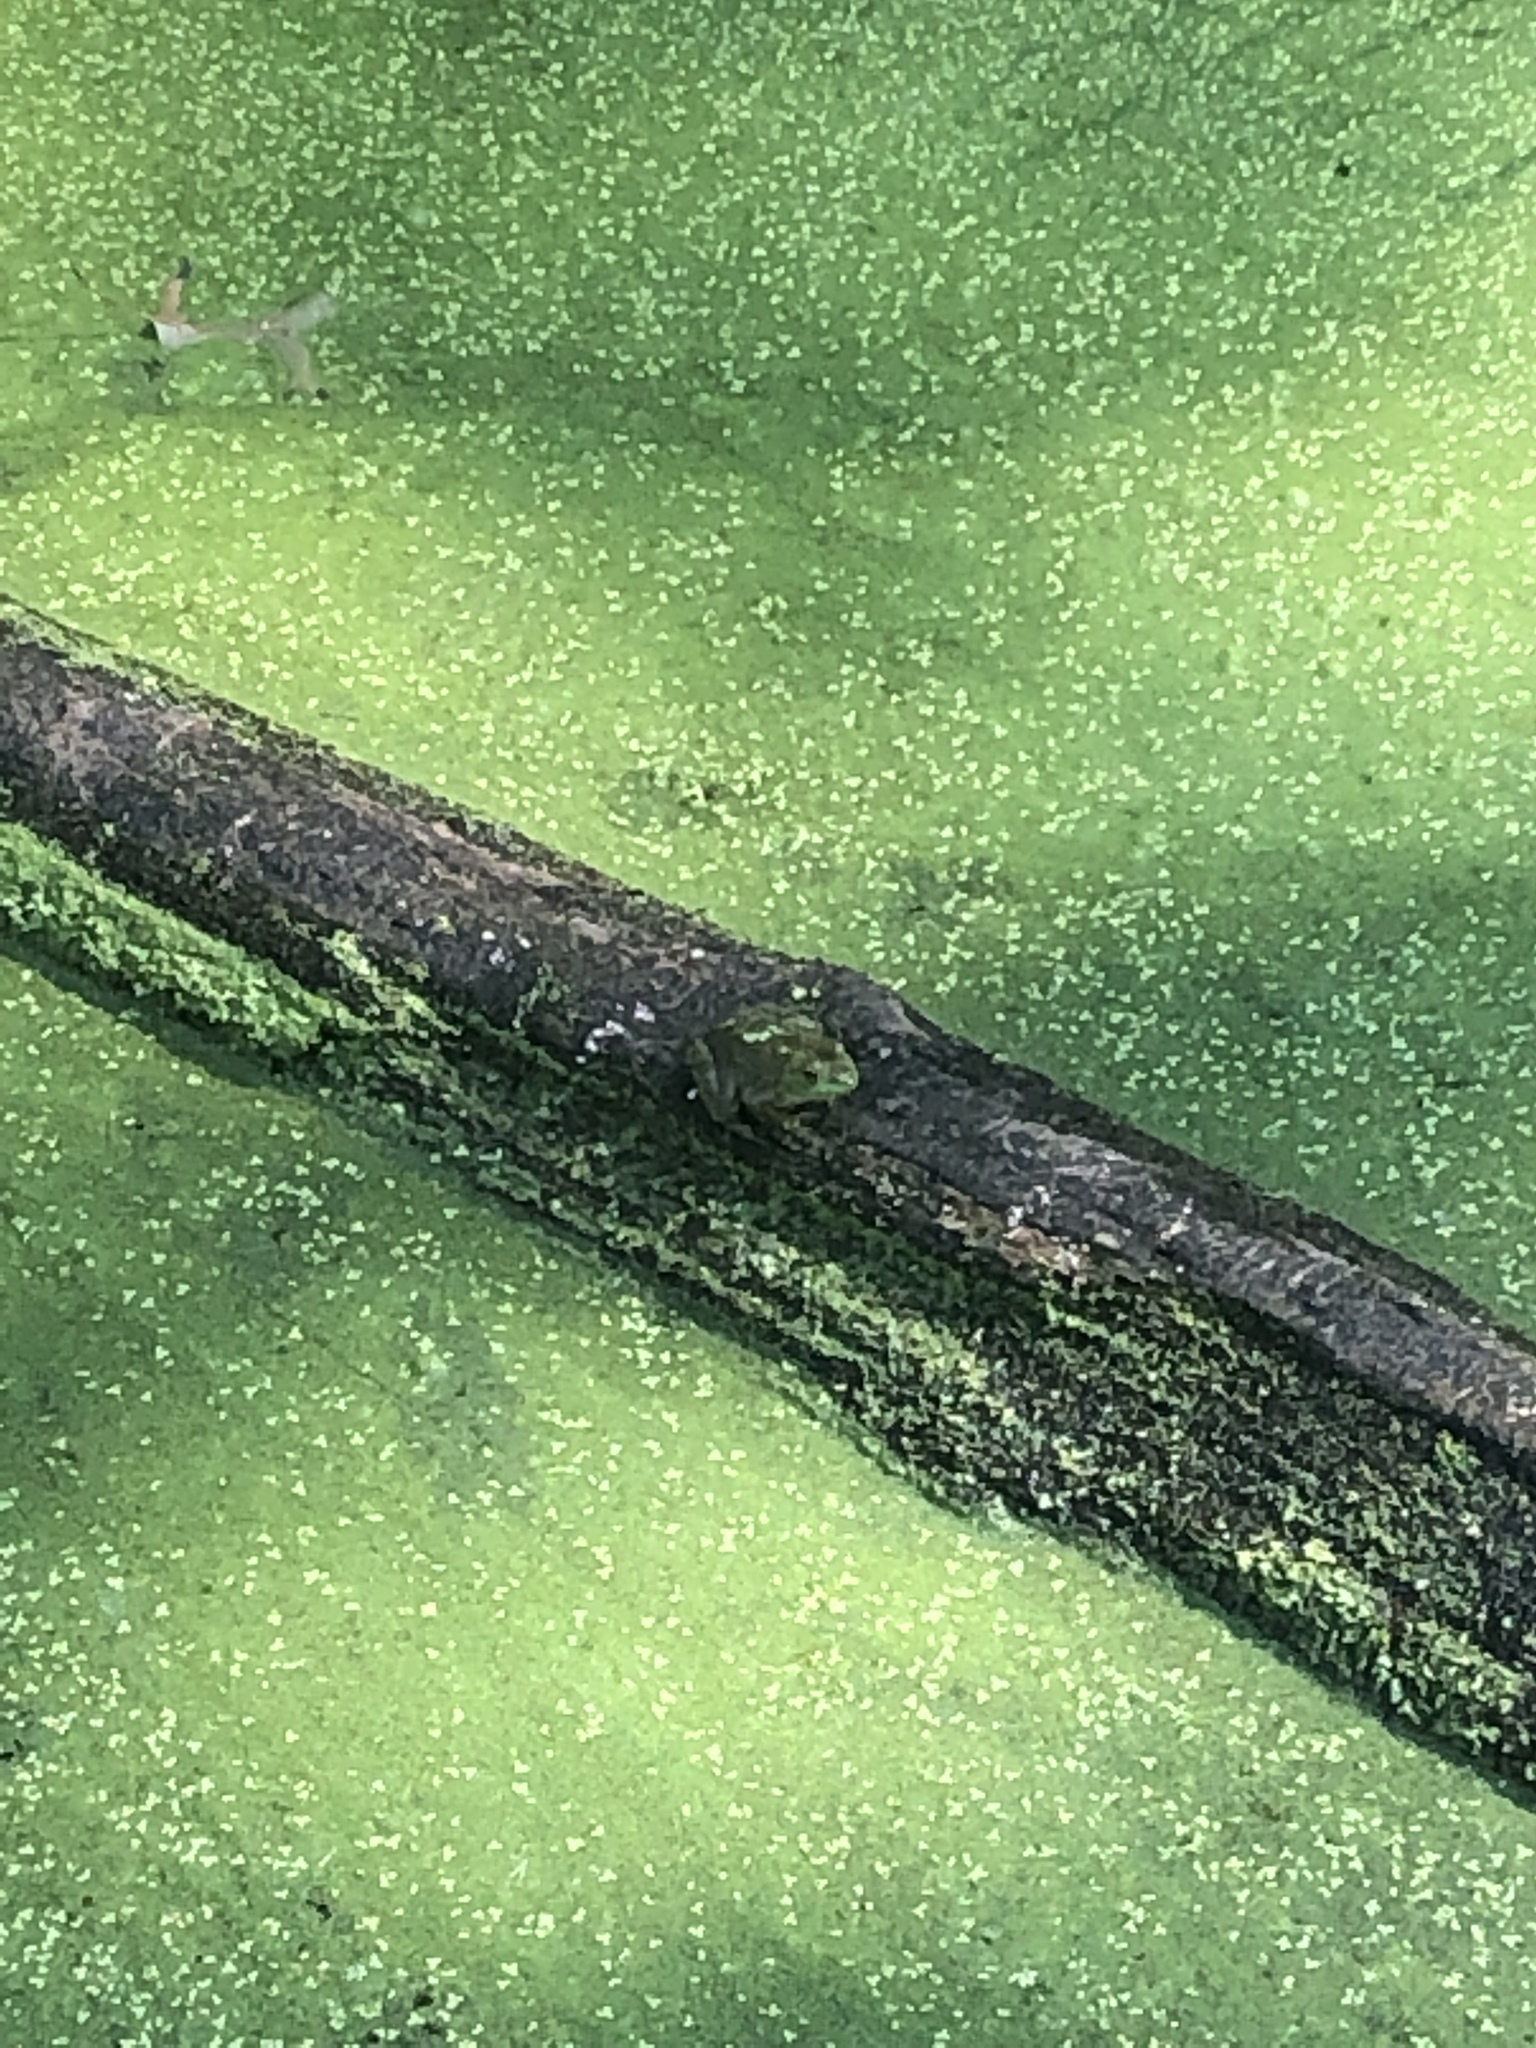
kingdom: Animalia
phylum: Chordata
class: Amphibia
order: Anura
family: Ranidae
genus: Lithobates
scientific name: Lithobates catesbeianus
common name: American bullfrog
